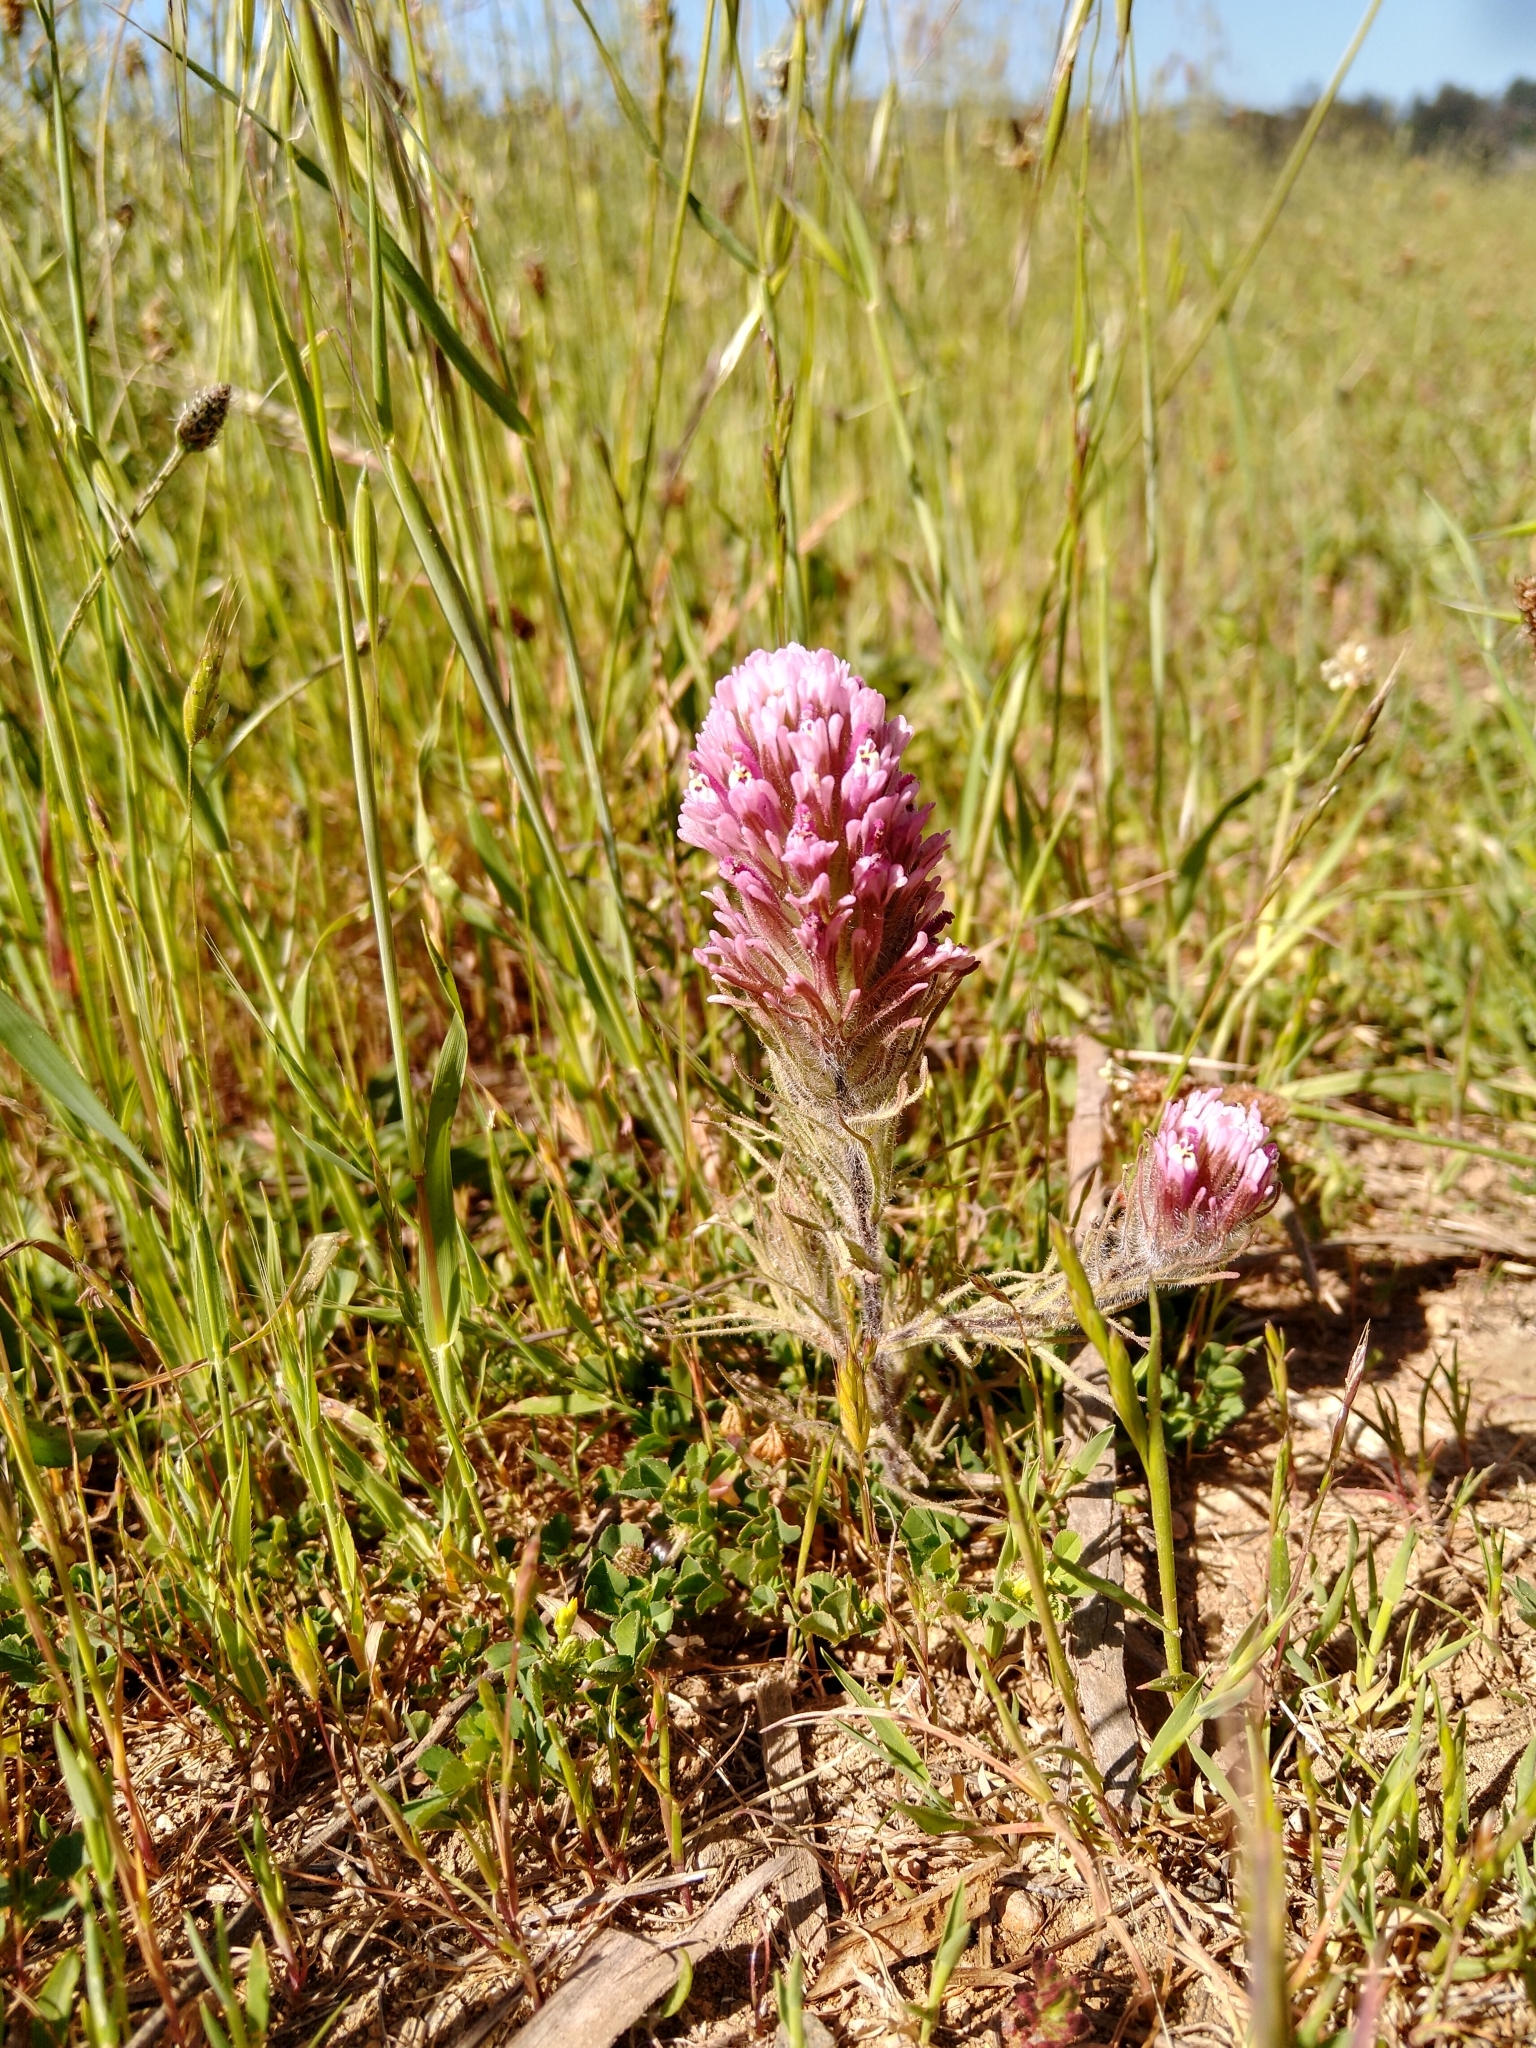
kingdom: Plantae
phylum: Tracheophyta
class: Magnoliopsida
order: Lamiales
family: Orobanchaceae
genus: Castilleja
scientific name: Castilleja exserta
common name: Purple owl-clover
